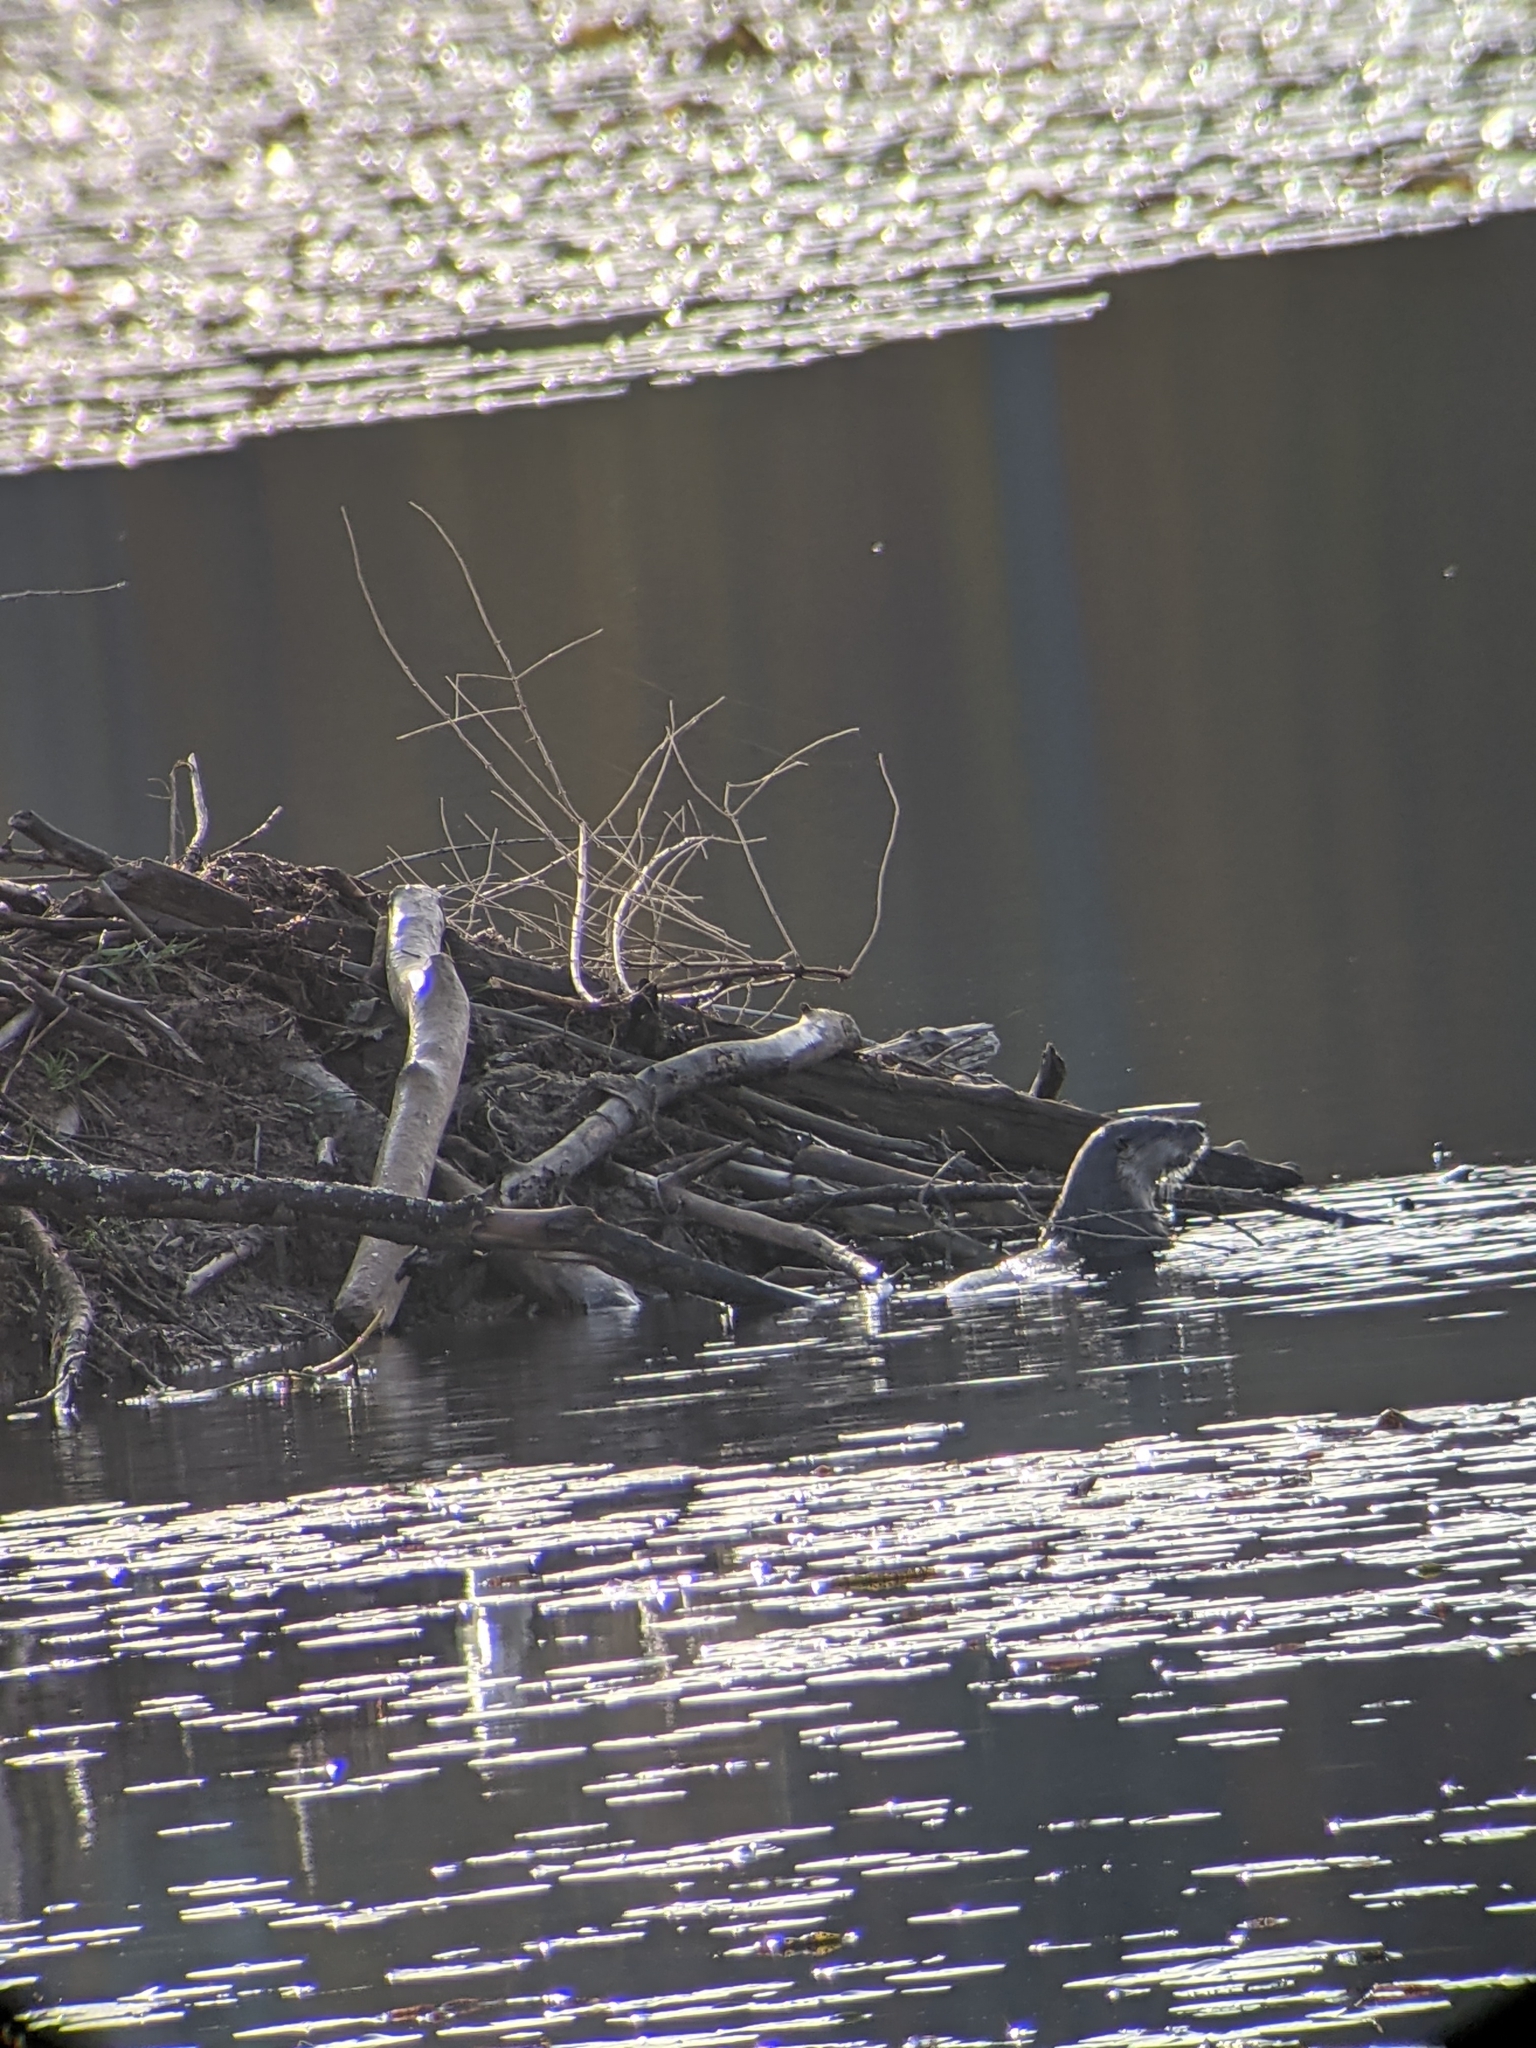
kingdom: Animalia
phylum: Chordata
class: Mammalia
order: Carnivora
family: Mustelidae
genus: Lontra
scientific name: Lontra canadensis
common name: North american river otter
